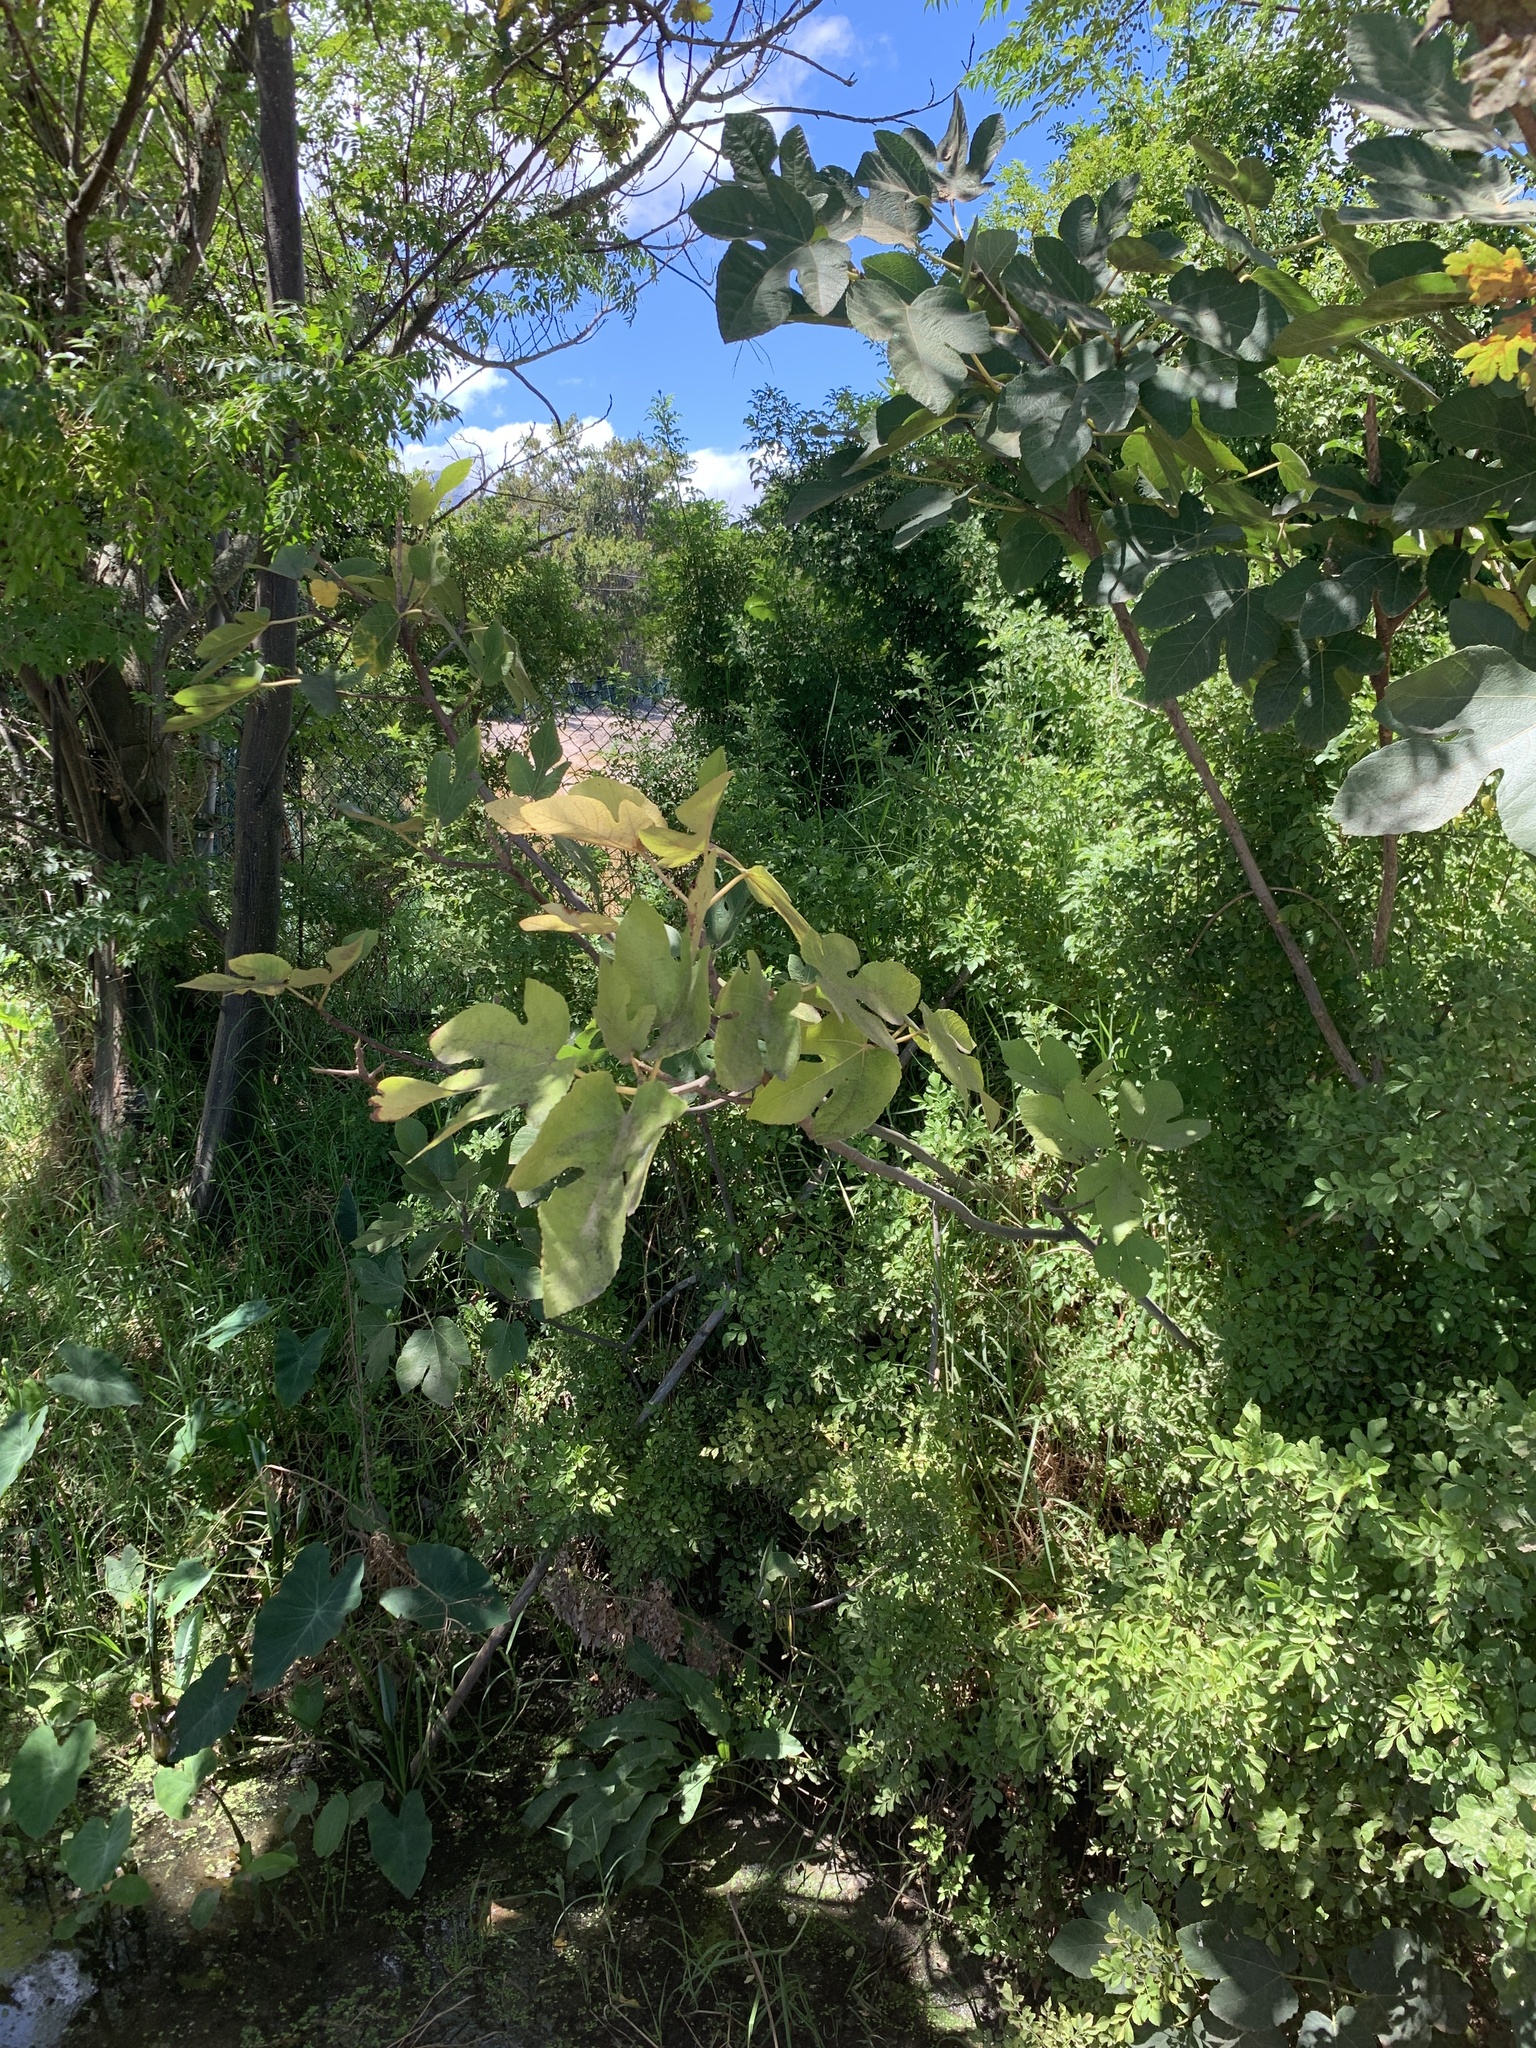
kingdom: Plantae
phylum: Tracheophyta
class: Magnoliopsida
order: Rosales
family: Moraceae
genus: Ficus
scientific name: Ficus carica
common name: Fig
